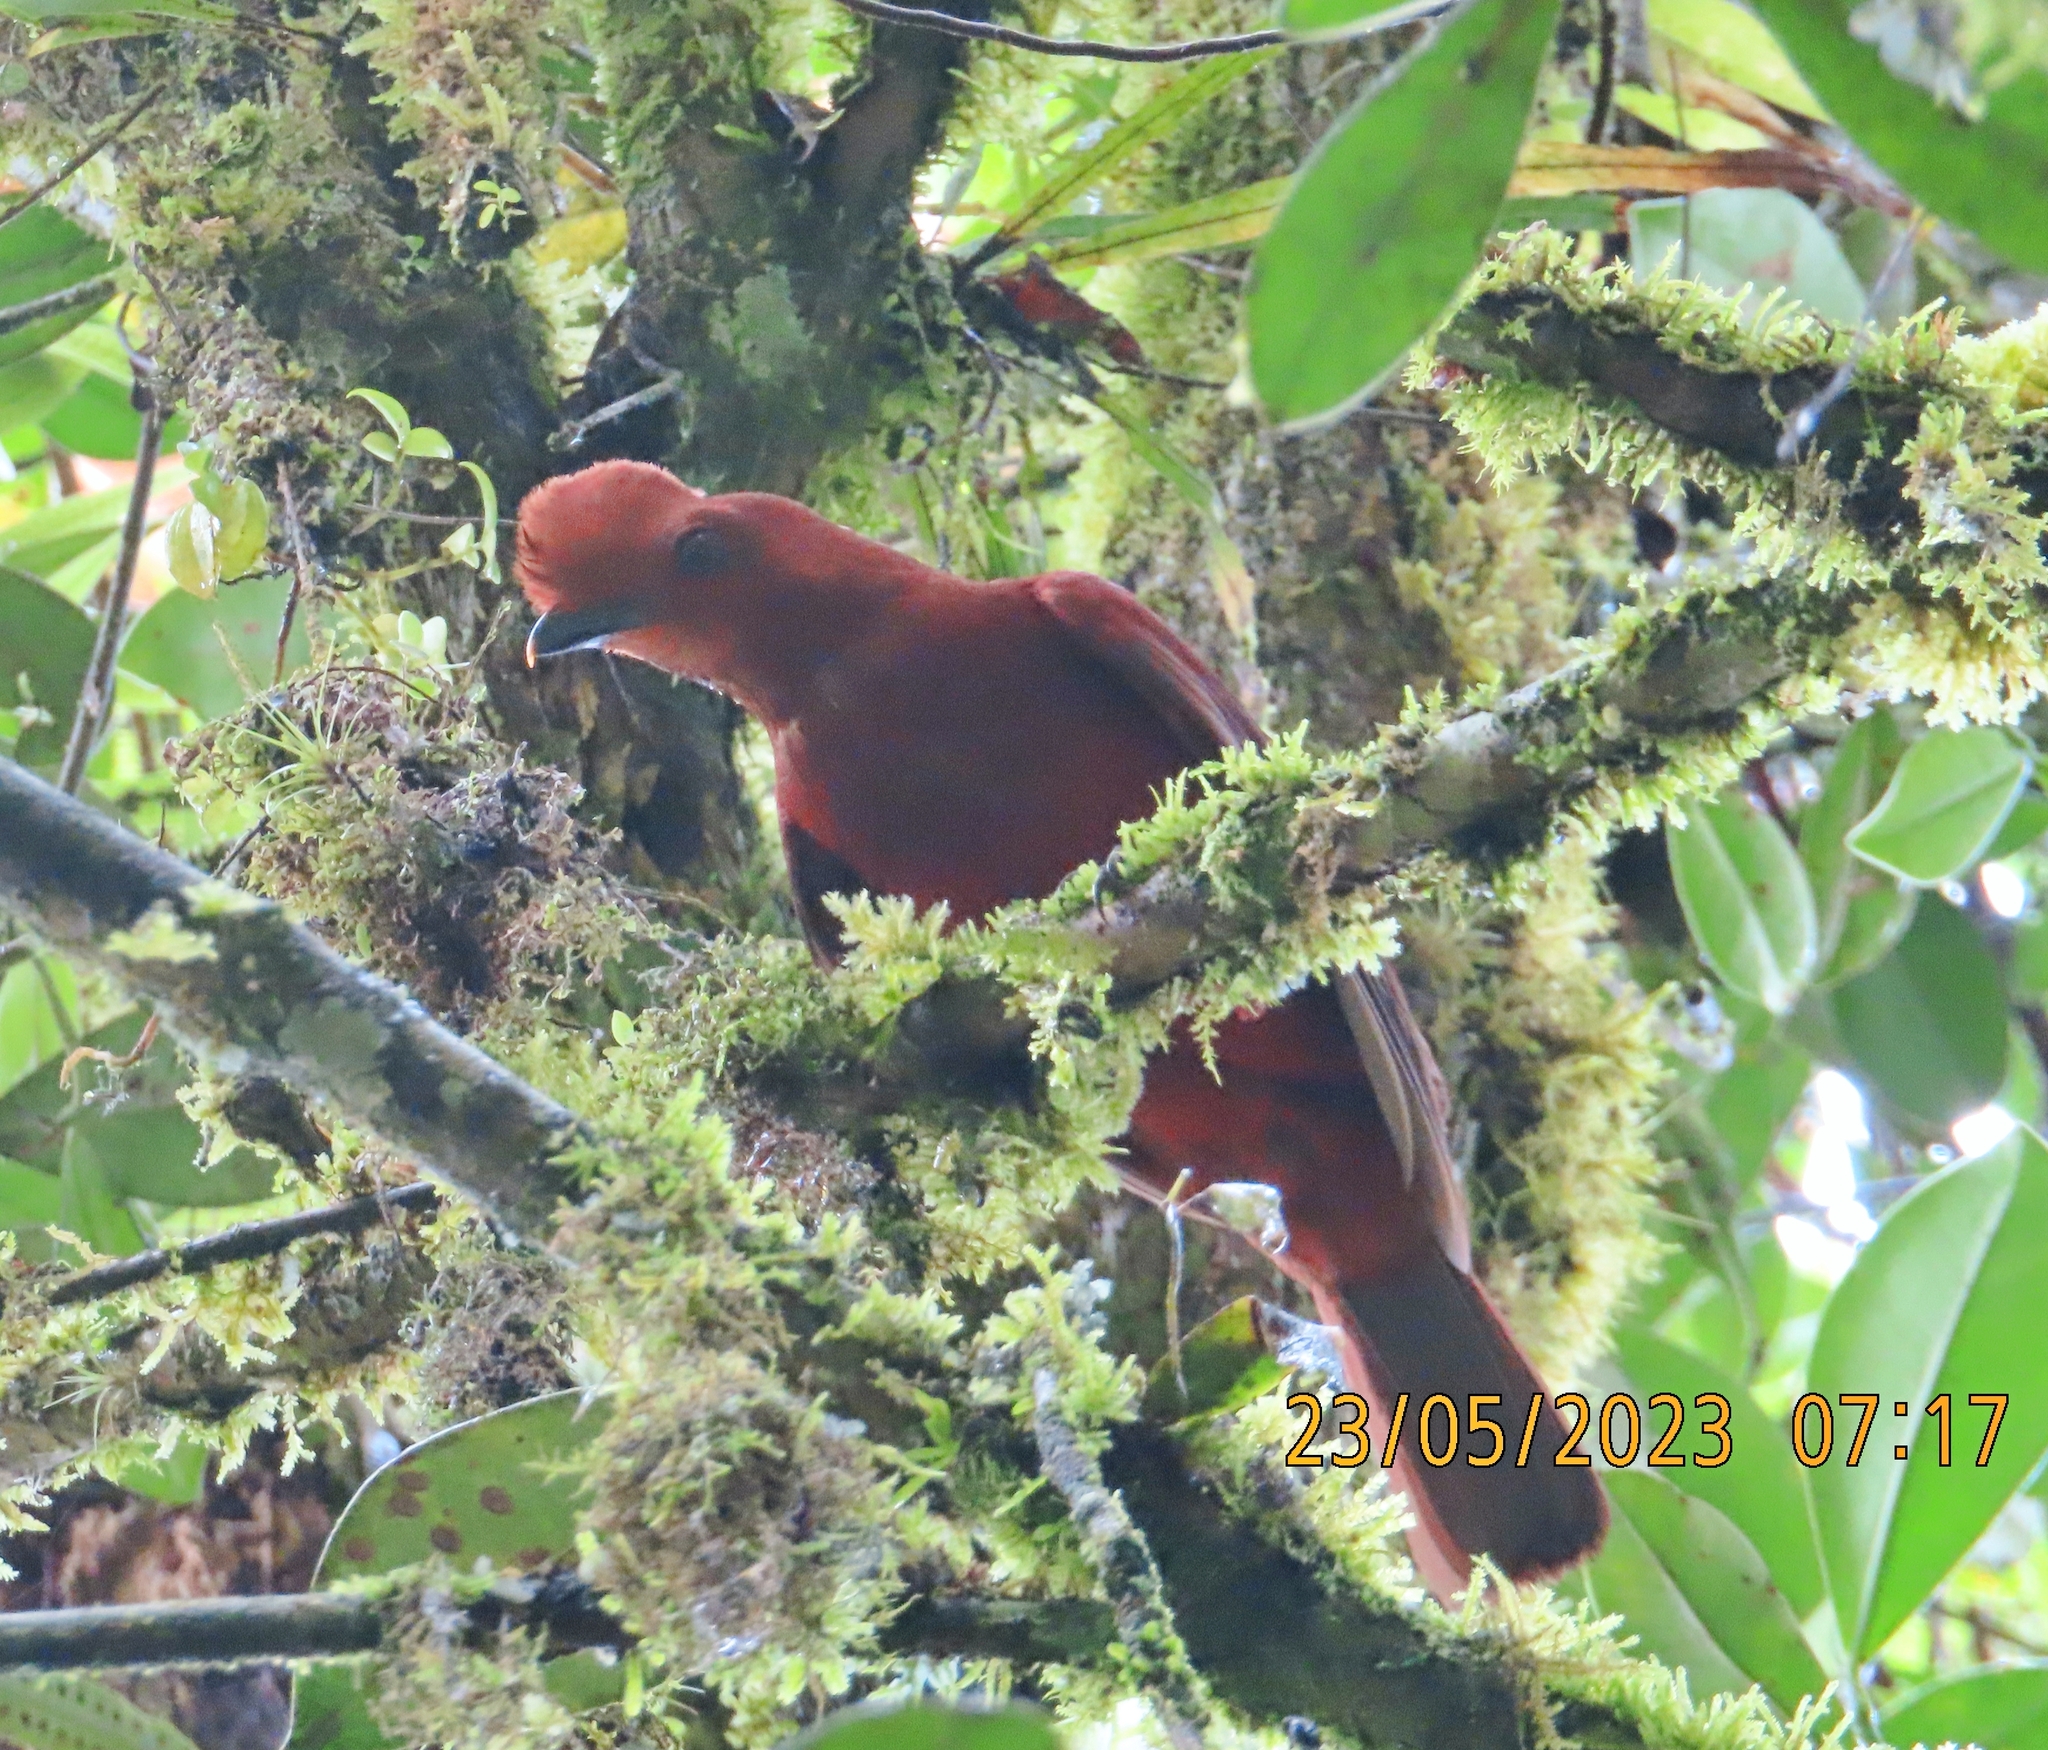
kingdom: Animalia
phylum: Chordata
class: Aves
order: Passeriformes
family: Cotingidae
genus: Rupicola
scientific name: Rupicola peruvianus
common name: Andean cock-of-the-rock
